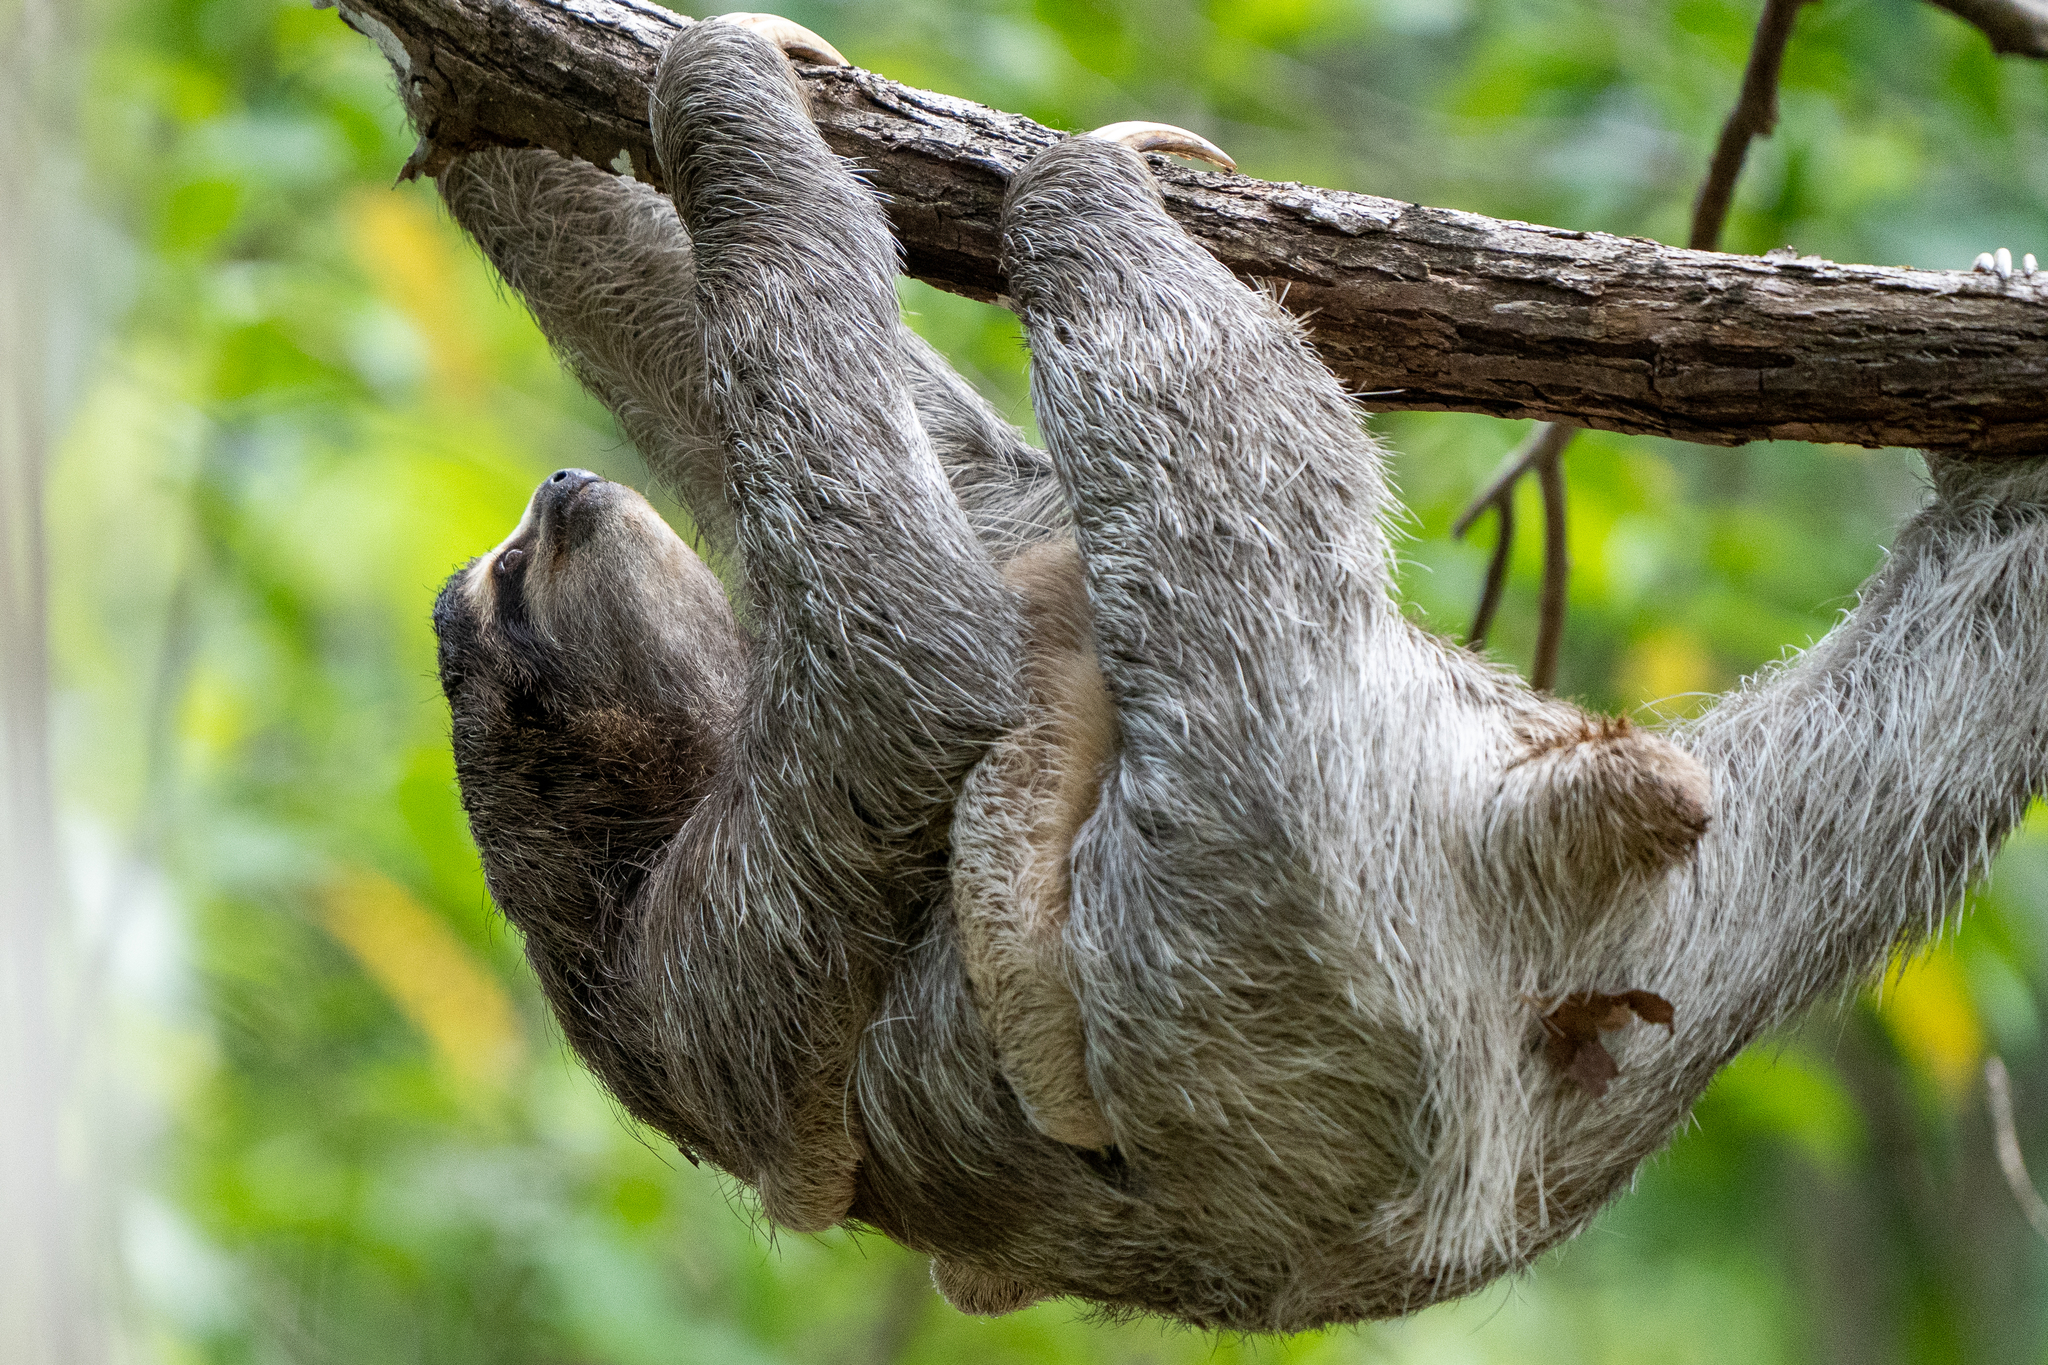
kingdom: Animalia
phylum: Chordata
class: Mammalia
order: Pilosa
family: Bradypodidae
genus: Bradypus
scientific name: Bradypus variegatus
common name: Brown-throated three-toed sloth
